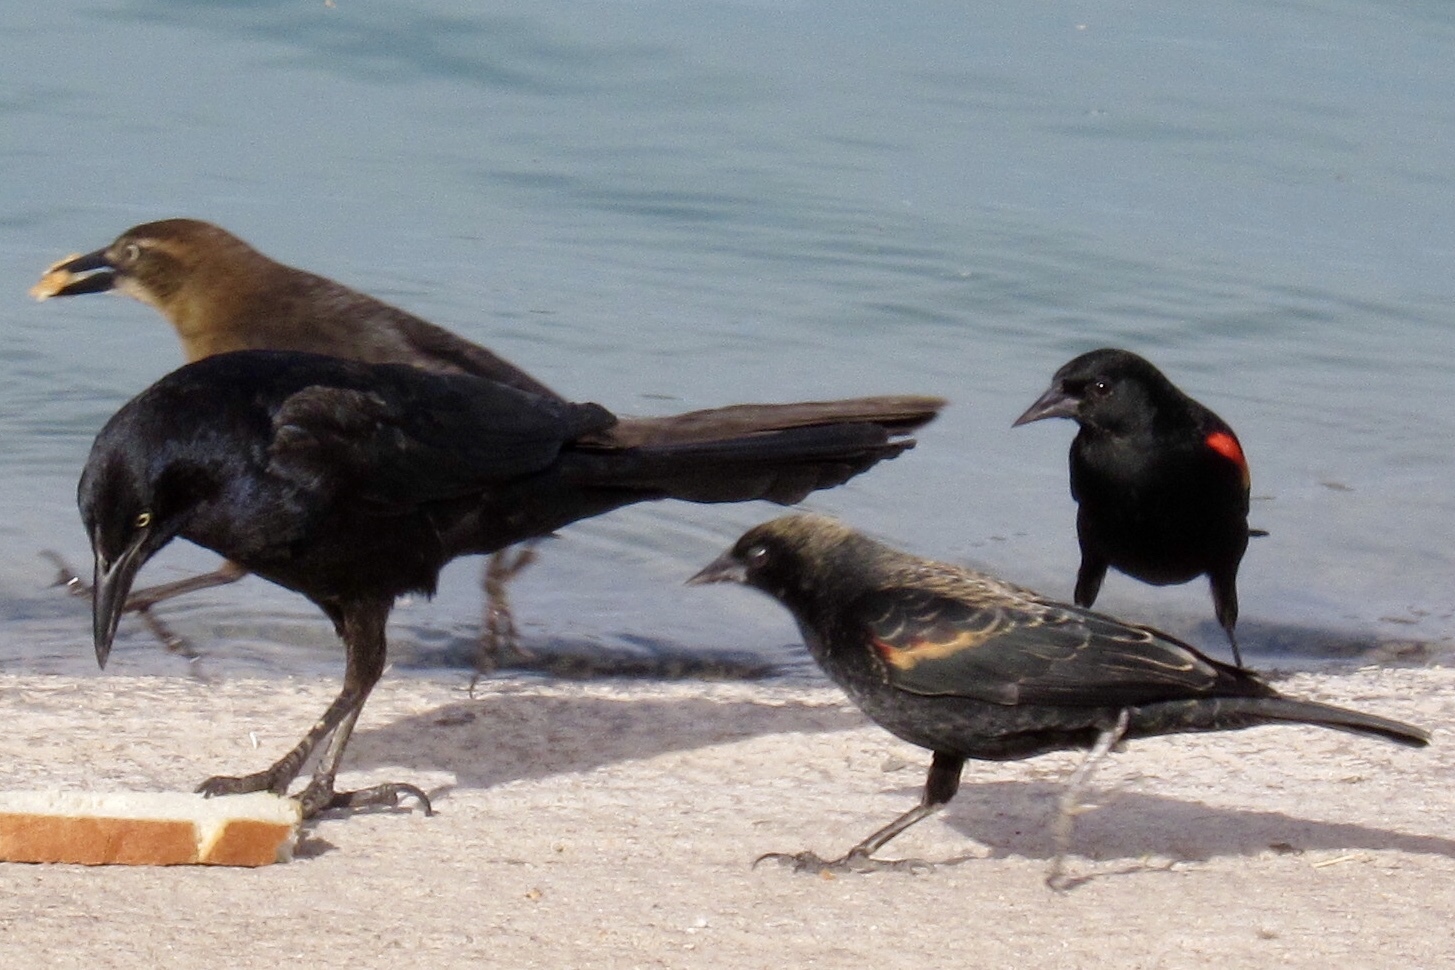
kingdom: Animalia
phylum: Chordata
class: Aves
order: Passeriformes
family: Icteridae
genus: Agelaius
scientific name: Agelaius phoeniceus
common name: Red-winged blackbird
